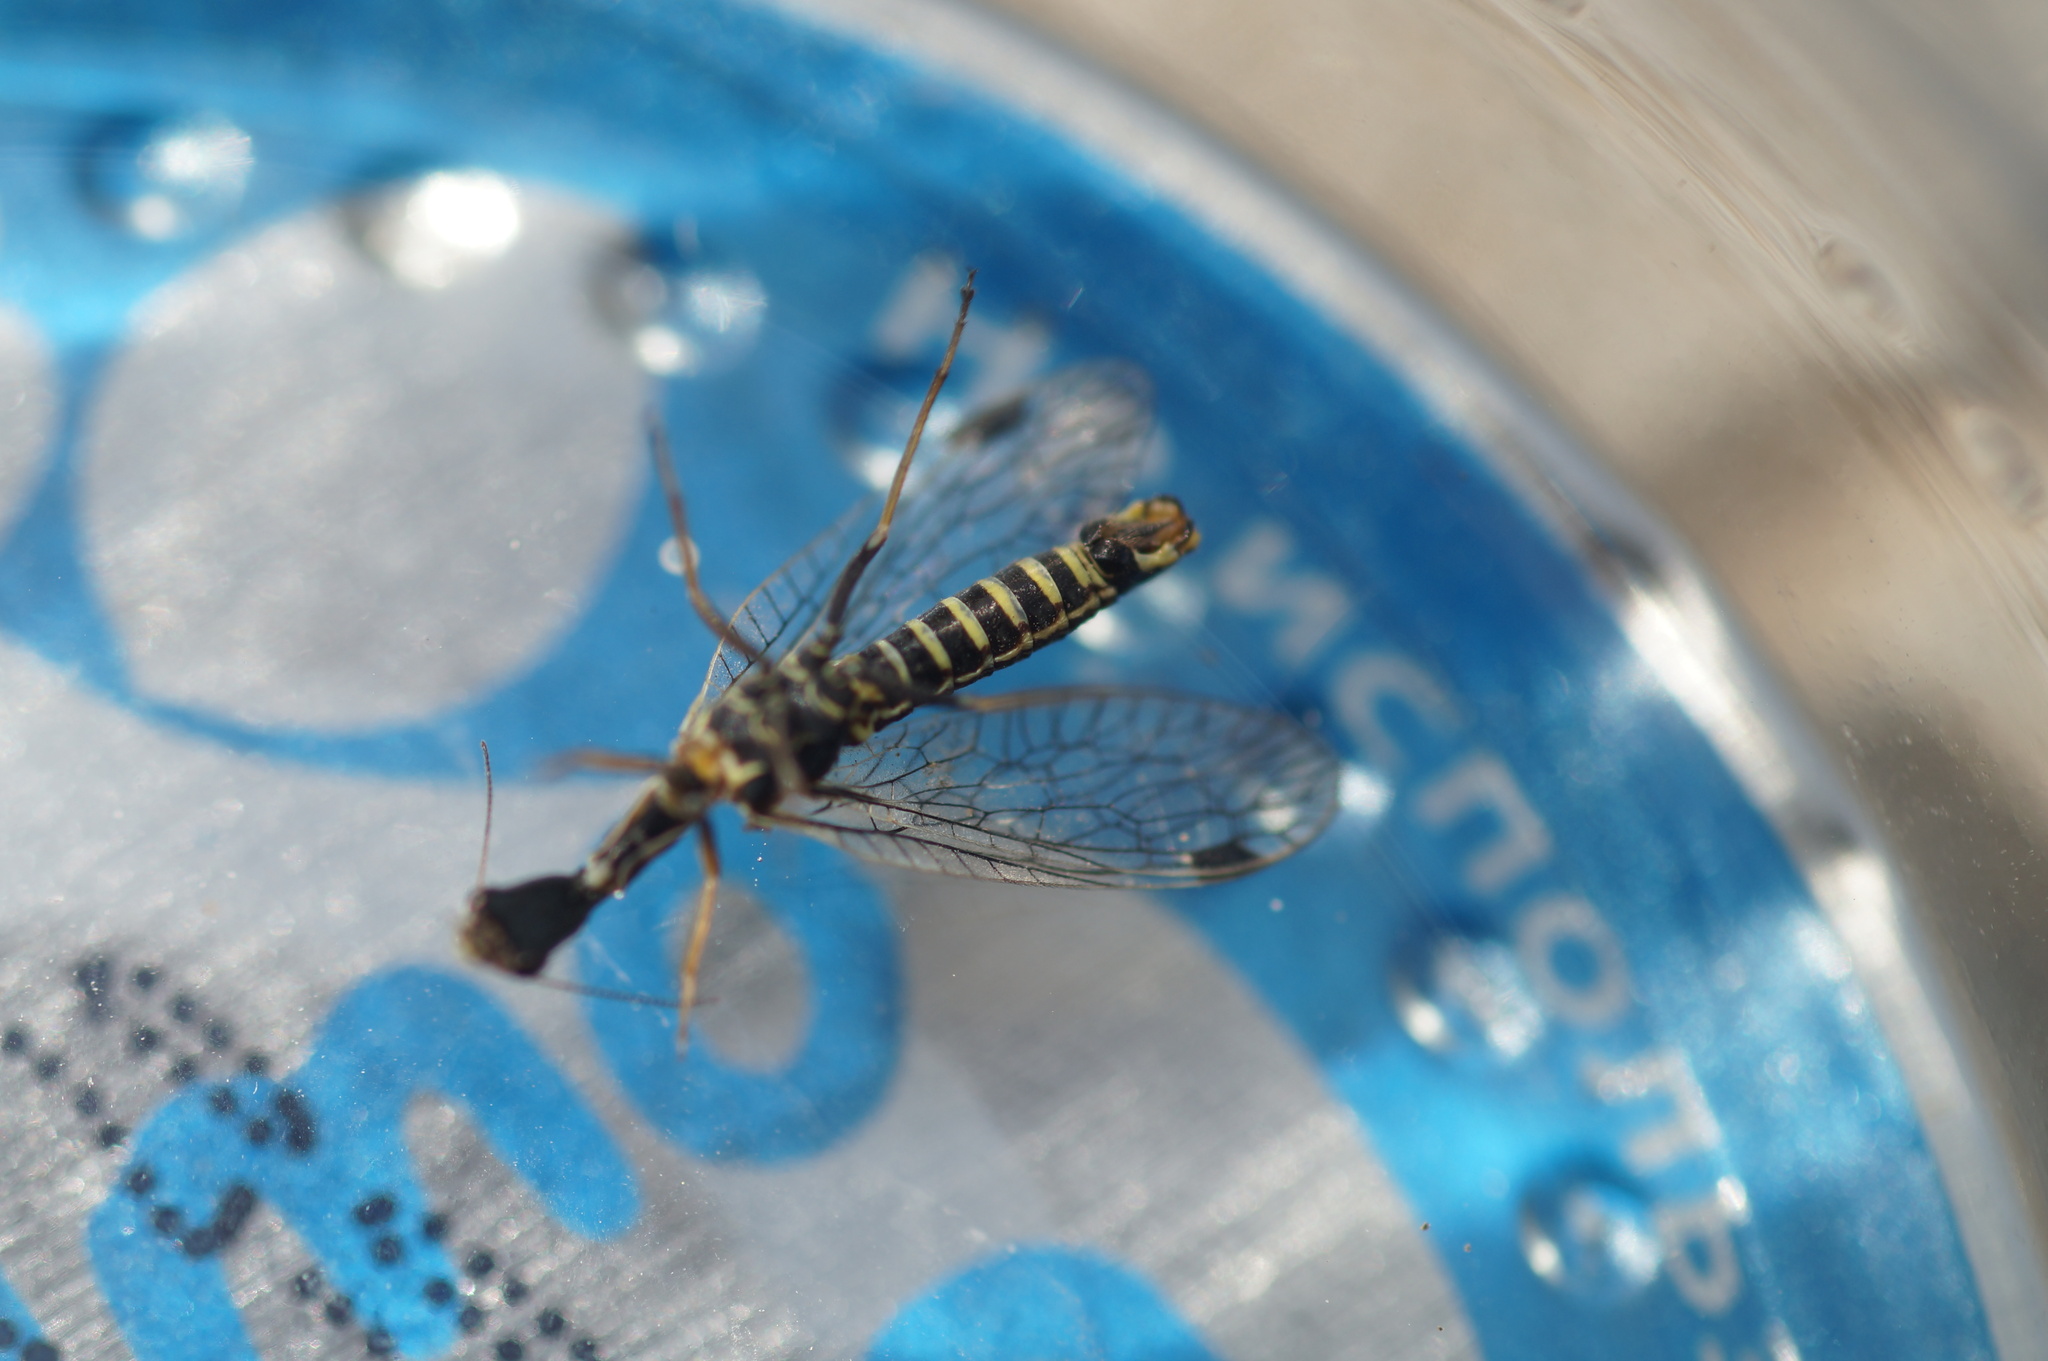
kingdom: Animalia
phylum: Arthropoda
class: Insecta
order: Raphidioptera
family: Raphidiidae
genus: Raphidia
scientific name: Raphidia ophiopsis
